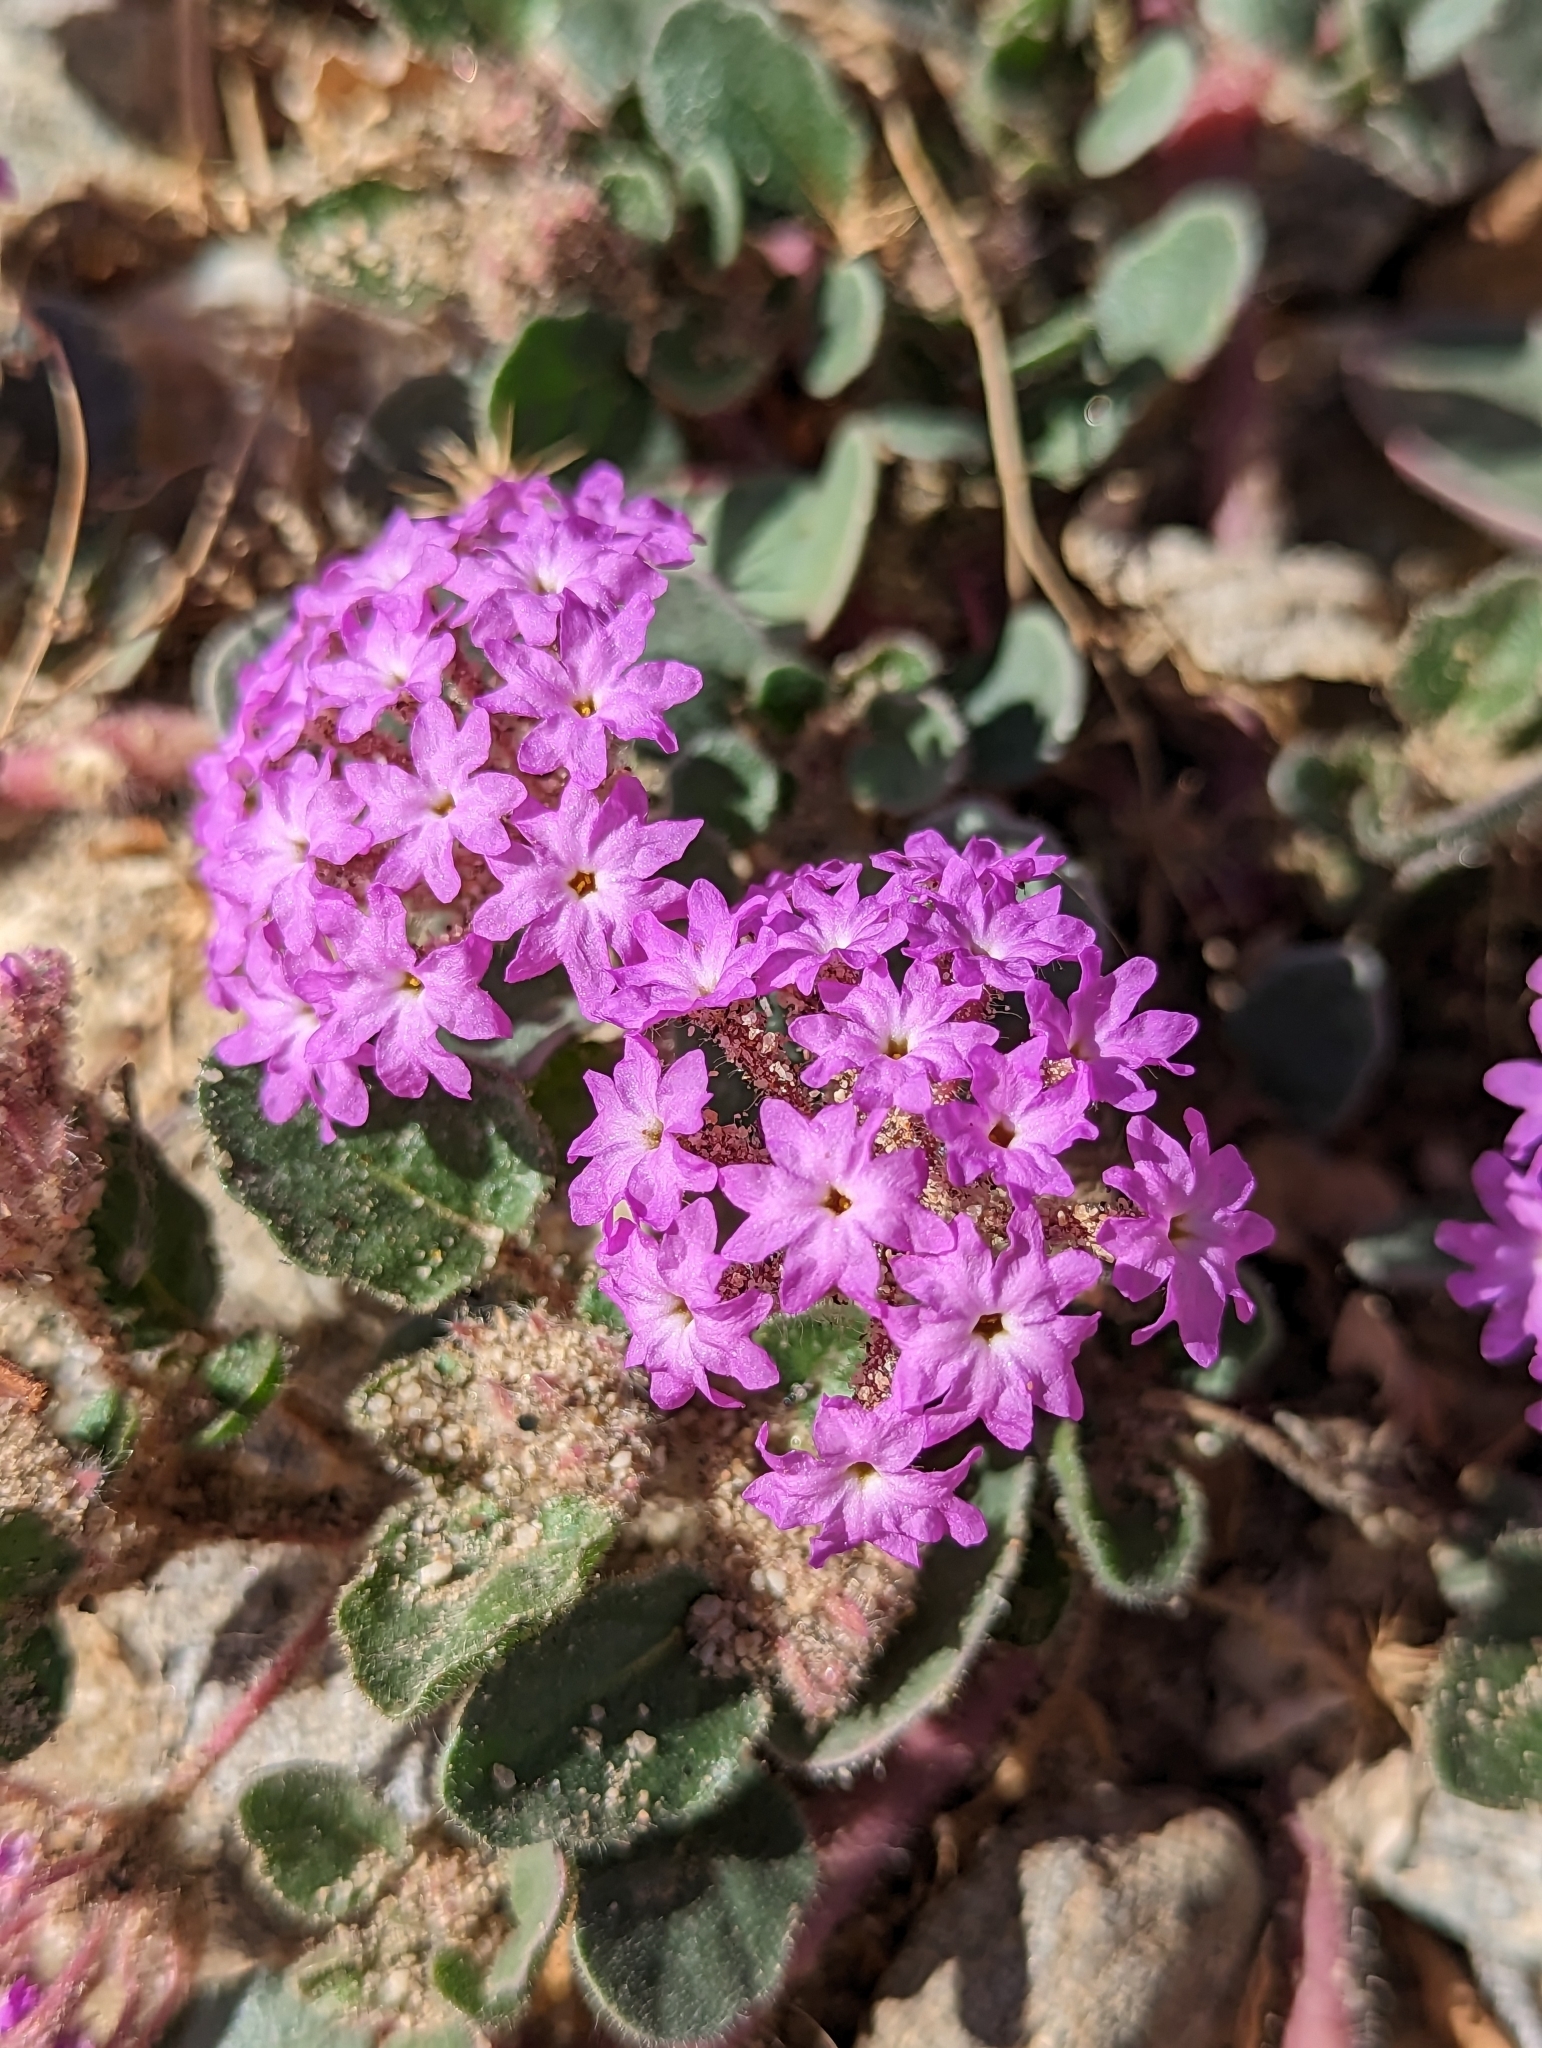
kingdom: Plantae
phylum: Tracheophyta
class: Magnoliopsida
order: Caryophyllales
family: Nyctaginaceae
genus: Abronia
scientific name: Abronia villosa
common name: Desert sand-verbena
